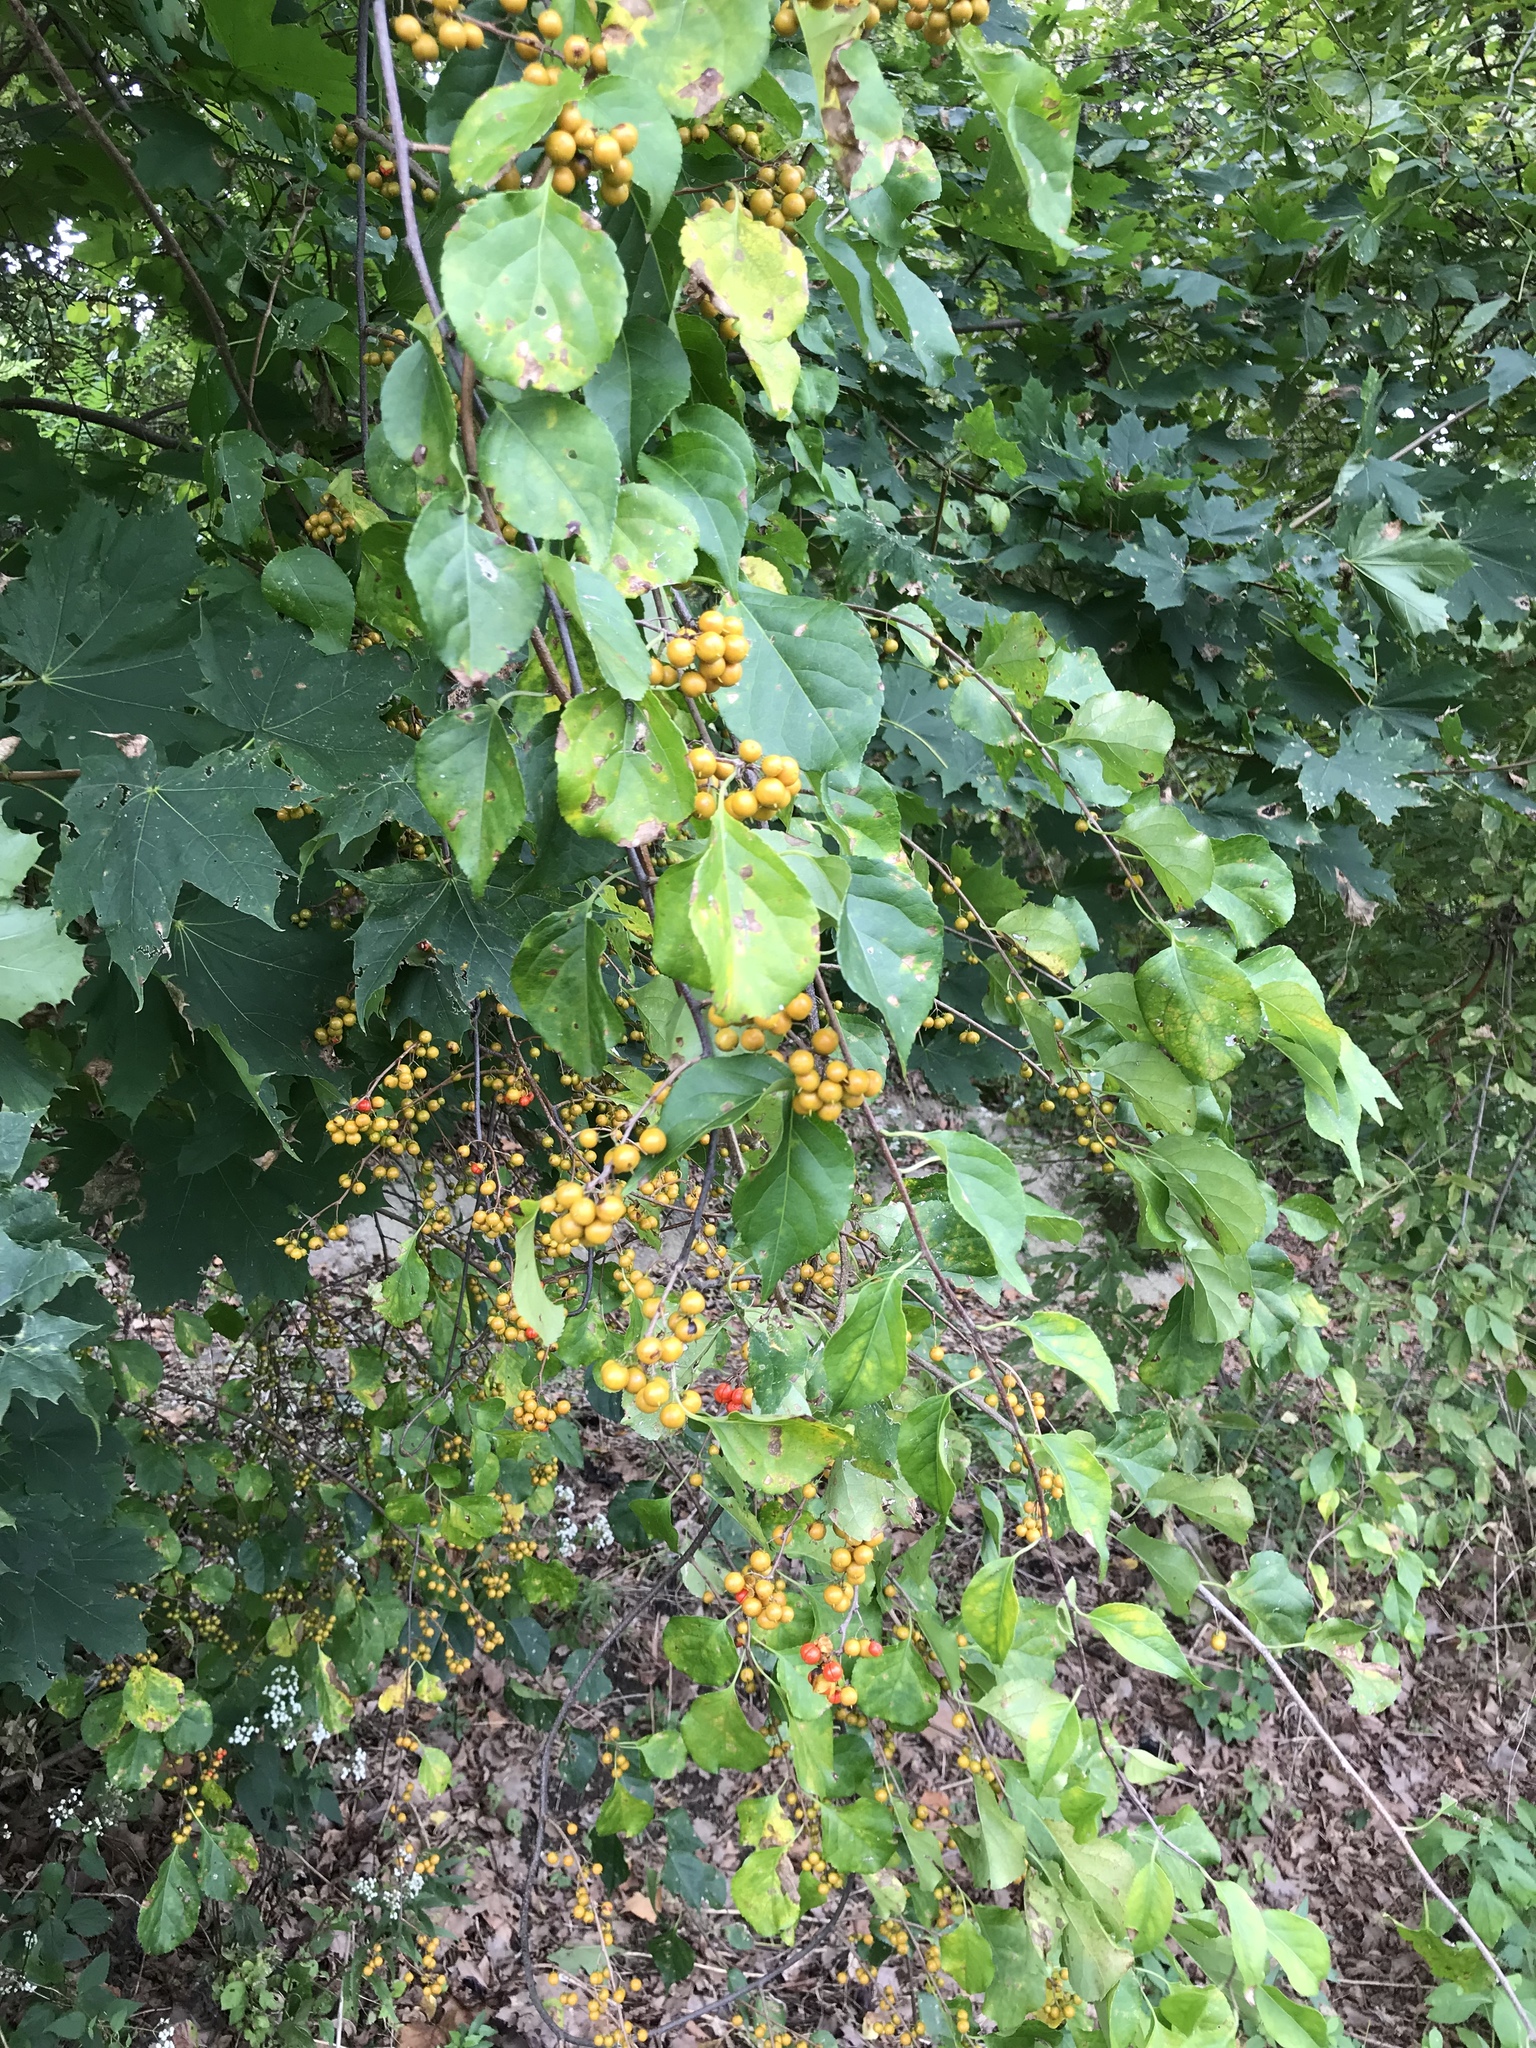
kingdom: Plantae
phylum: Tracheophyta
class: Magnoliopsida
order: Celastrales
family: Celastraceae
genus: Celastrus
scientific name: Celastrus orbiculatus
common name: Oriental bittersweet
